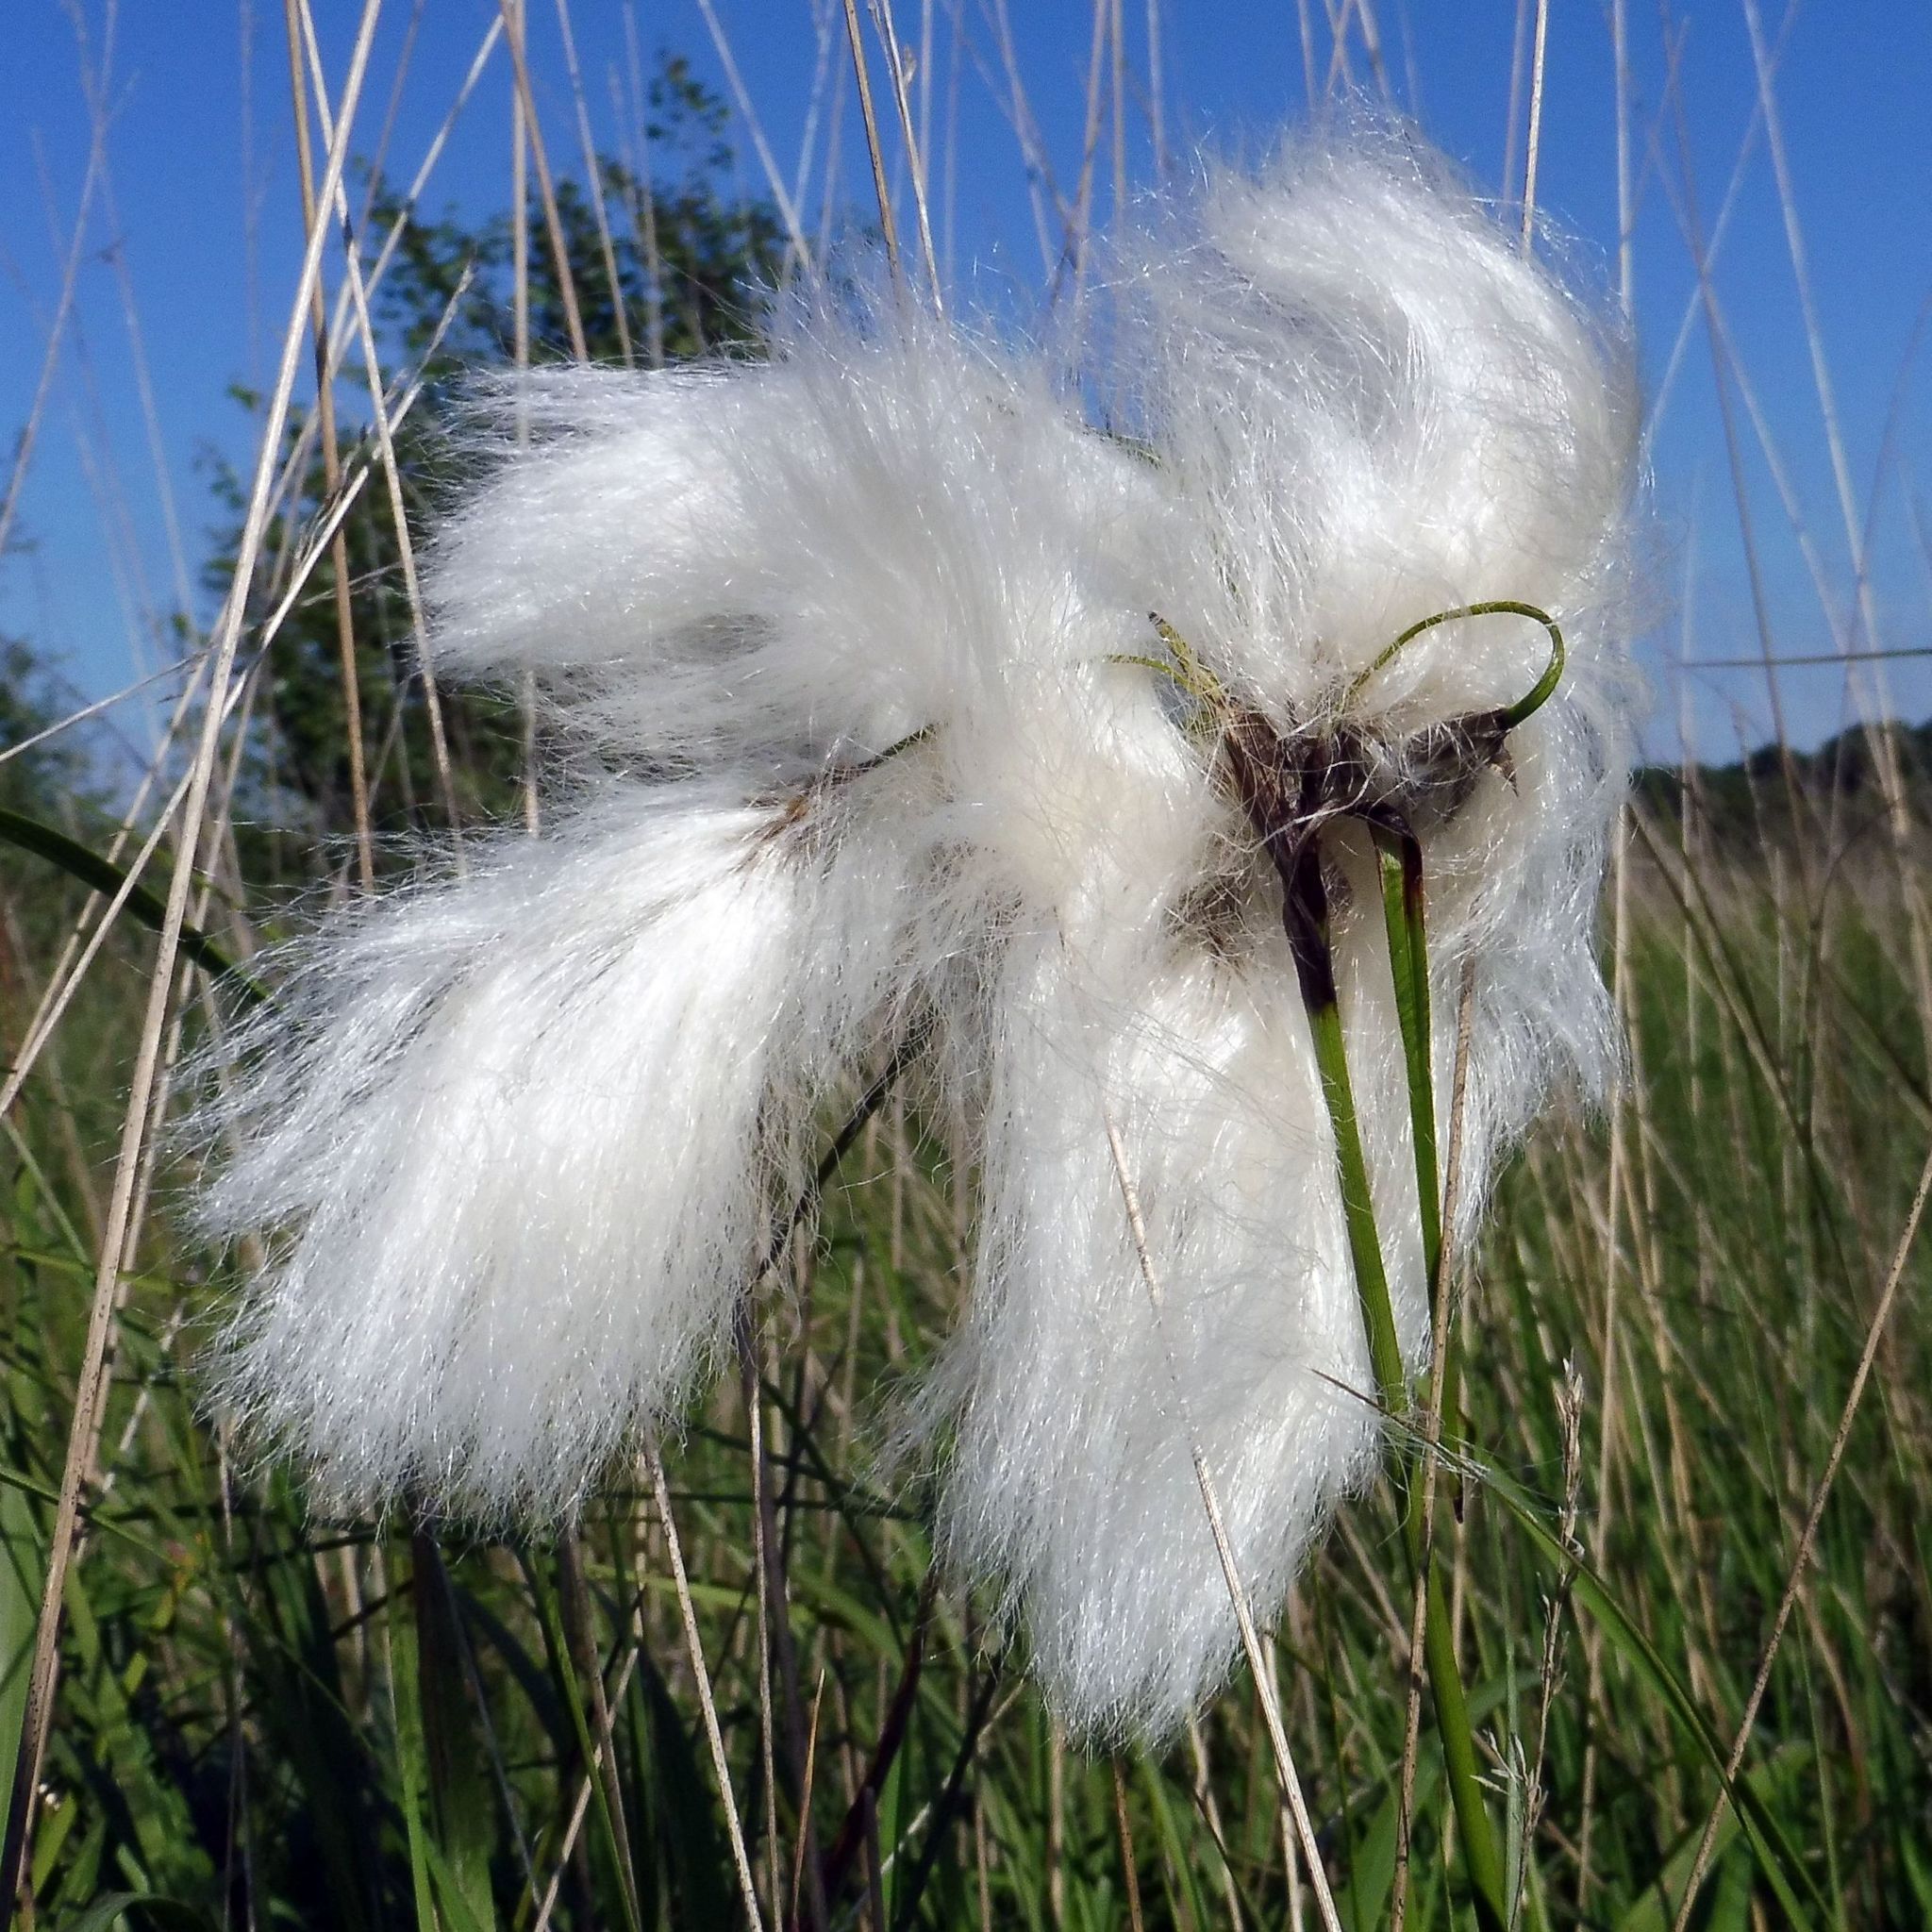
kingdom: Plantae
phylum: Tracheophyta
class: Liliopsida
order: Poales
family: Cyperaceae
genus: Eriophorum
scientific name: Eriophorum angustifolium
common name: Common cottongrass
